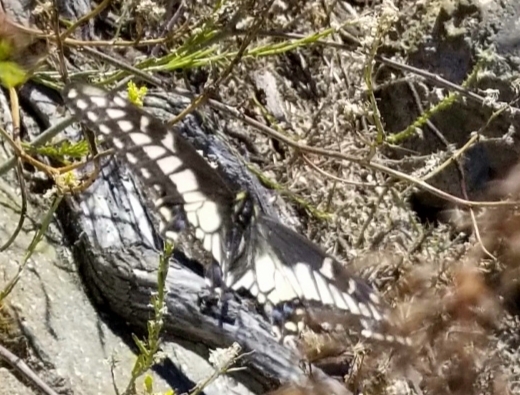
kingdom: Animalia
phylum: Arthropoda
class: Insecta
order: Lepidoptera
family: Papilionidae
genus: Papilio
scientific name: Papilio zelicaon
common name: Anise swallowtail
